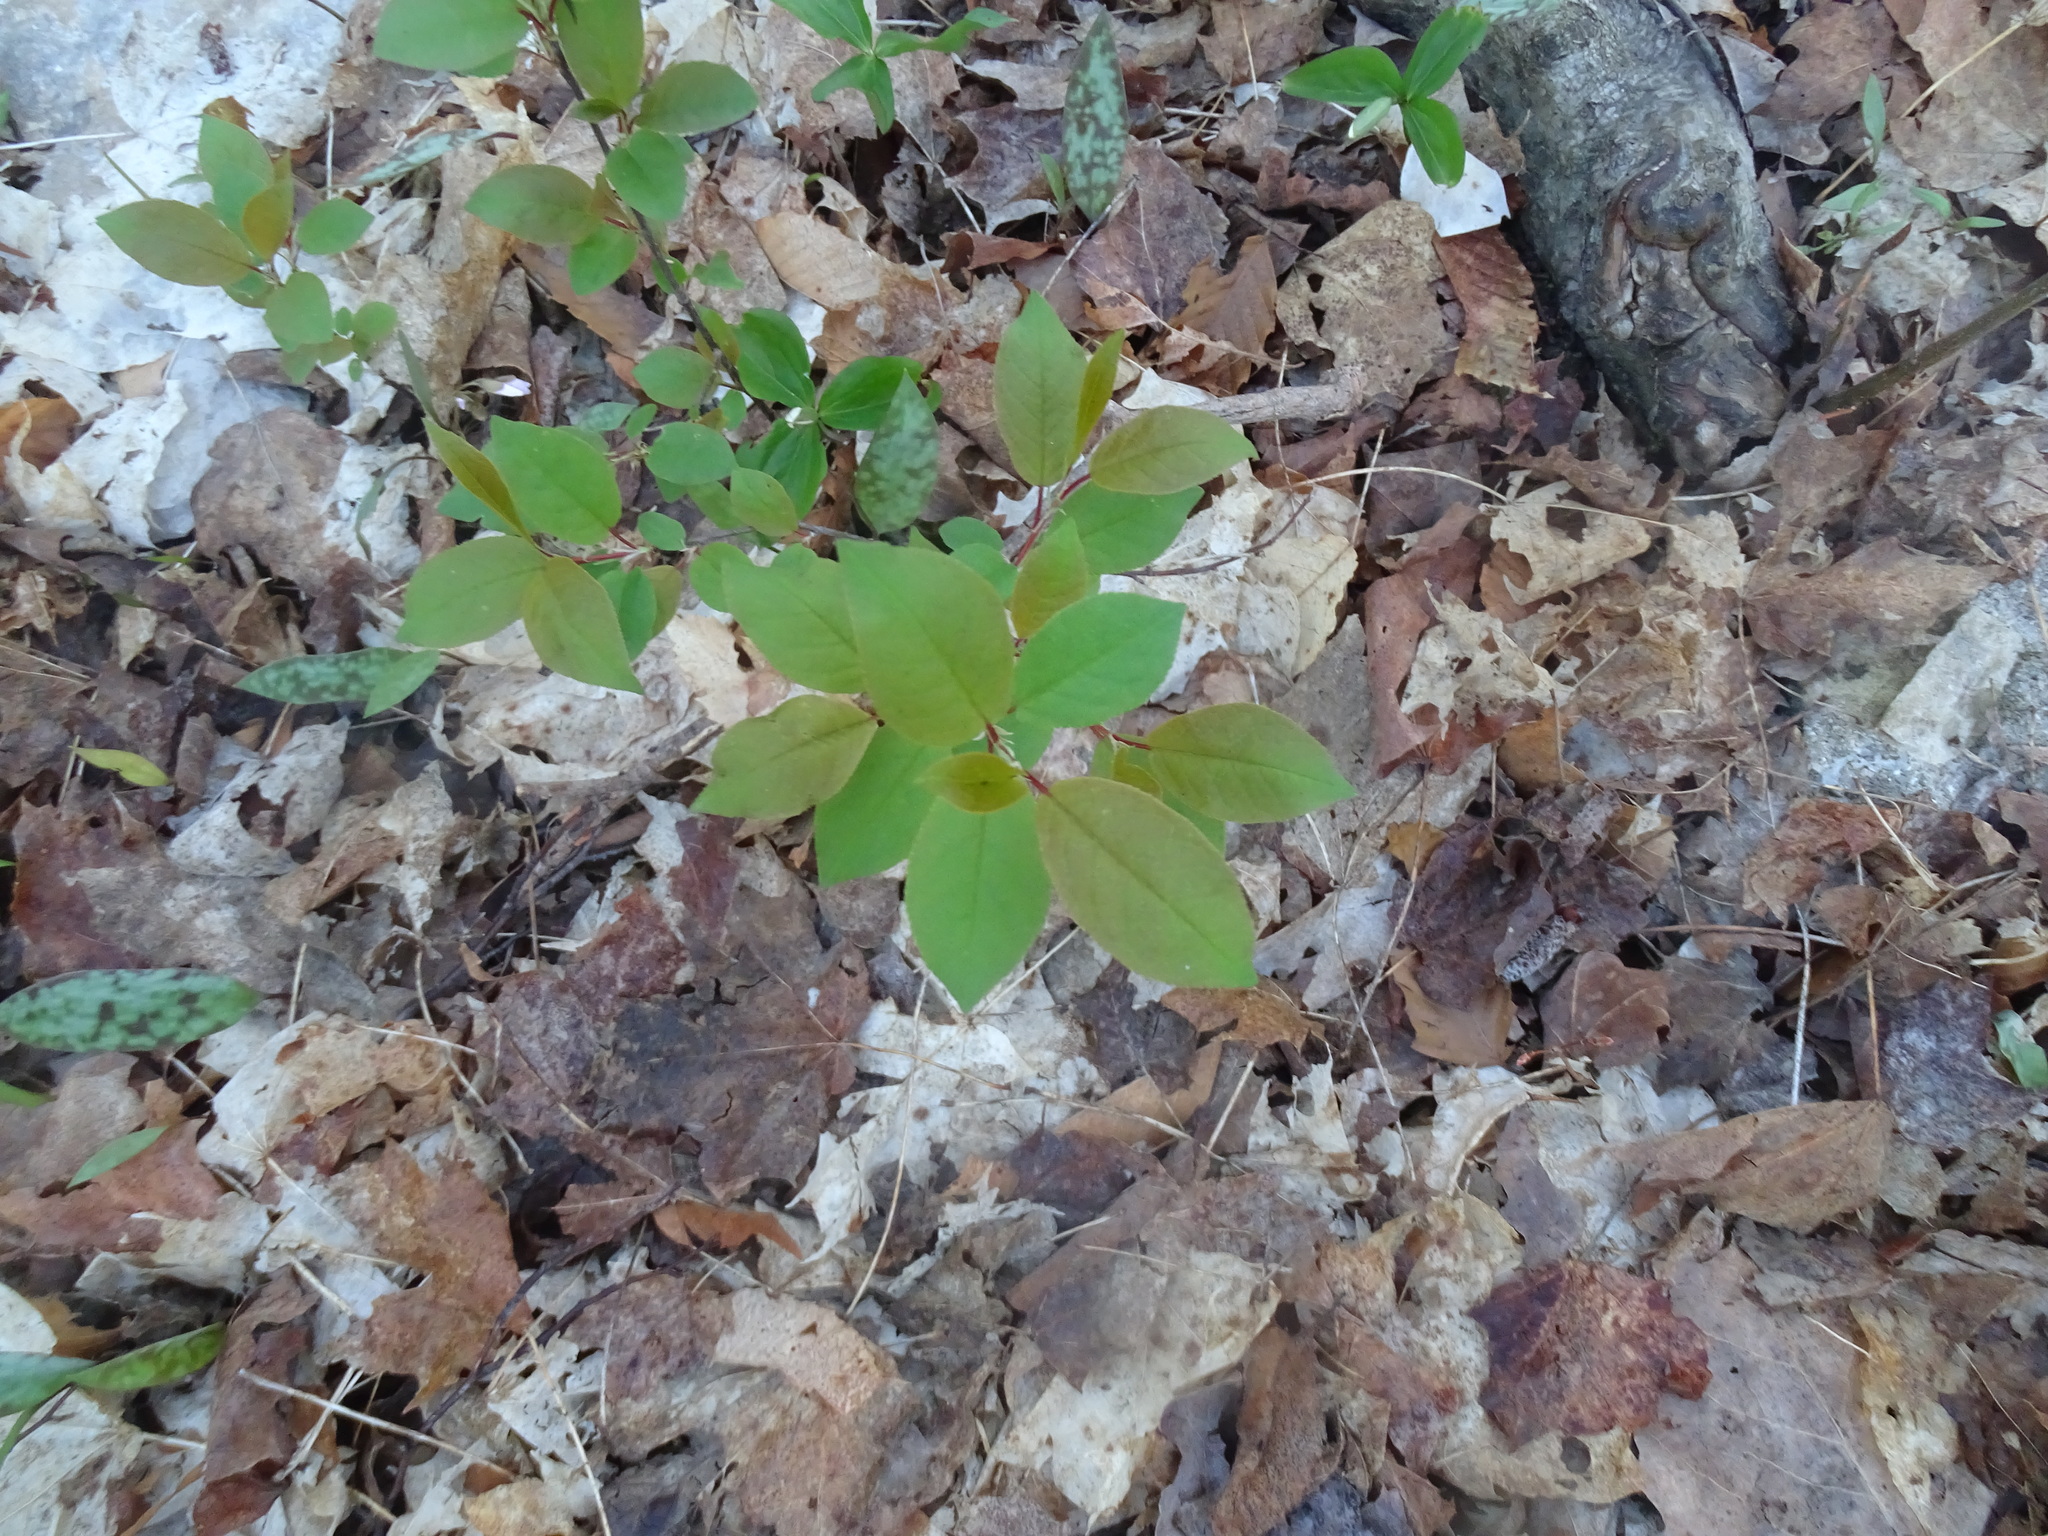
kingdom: Plantae
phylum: Tracheophyta
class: Magnoliopsida
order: Rosales
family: Rosaceae
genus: Prunus
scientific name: Prunus virginiana
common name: Chokecherry
